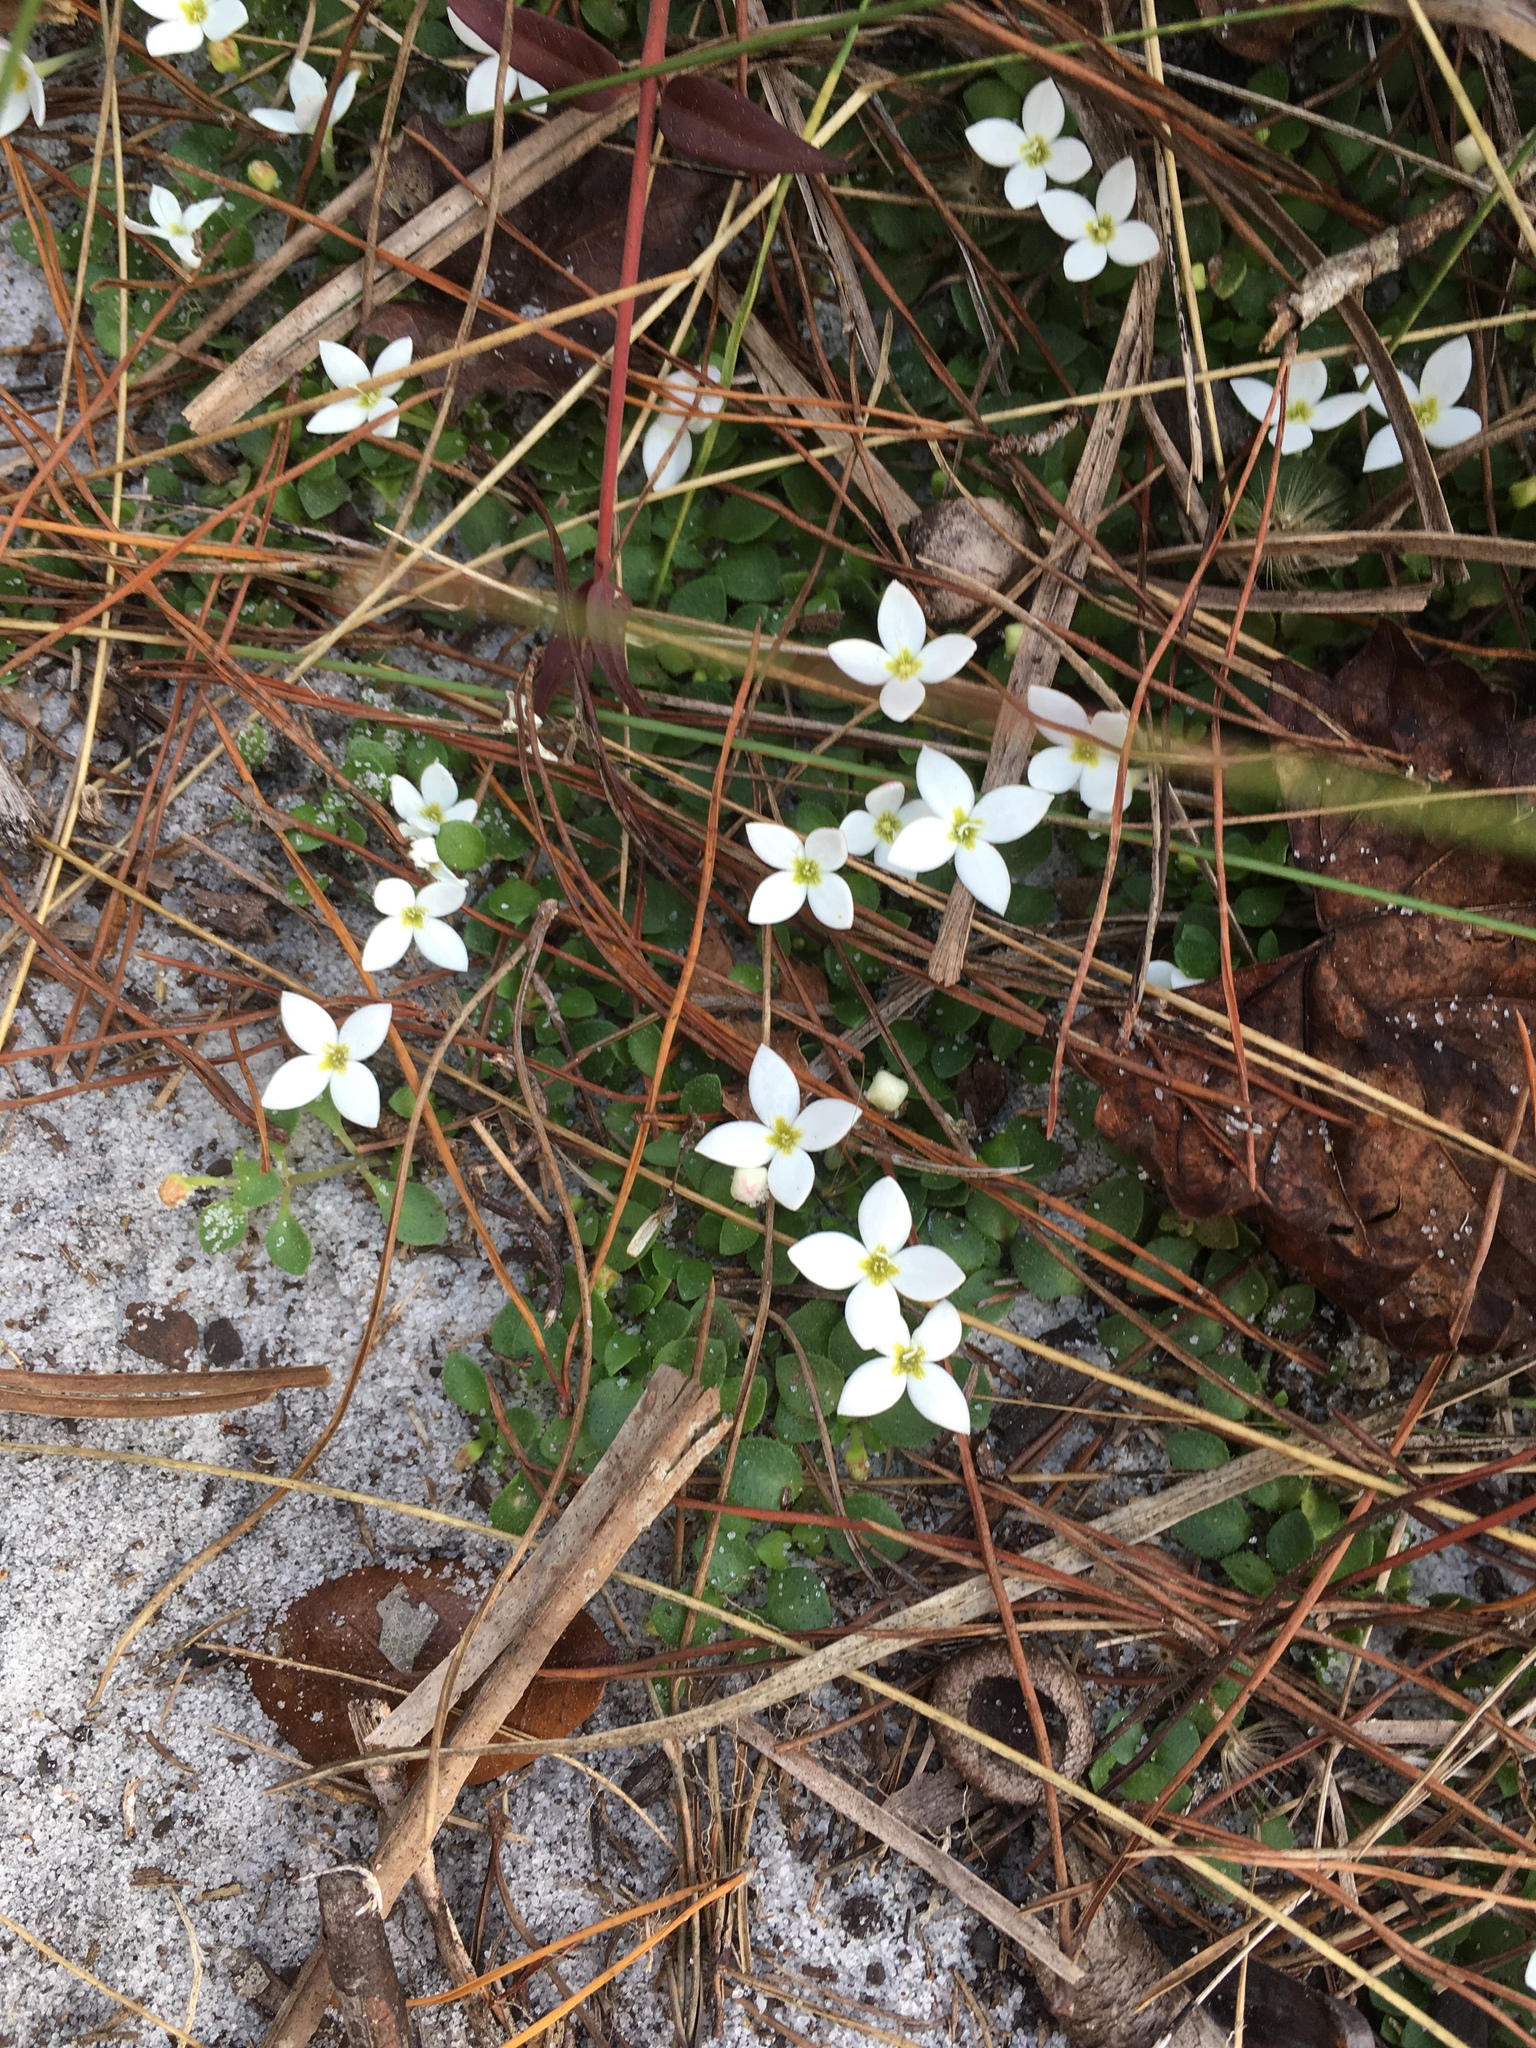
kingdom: Plantae
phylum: Tracheophyta
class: Magnoliopsida
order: Gentianales
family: Rubiaceae
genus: Houstonia
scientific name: Houstonia procumbens
